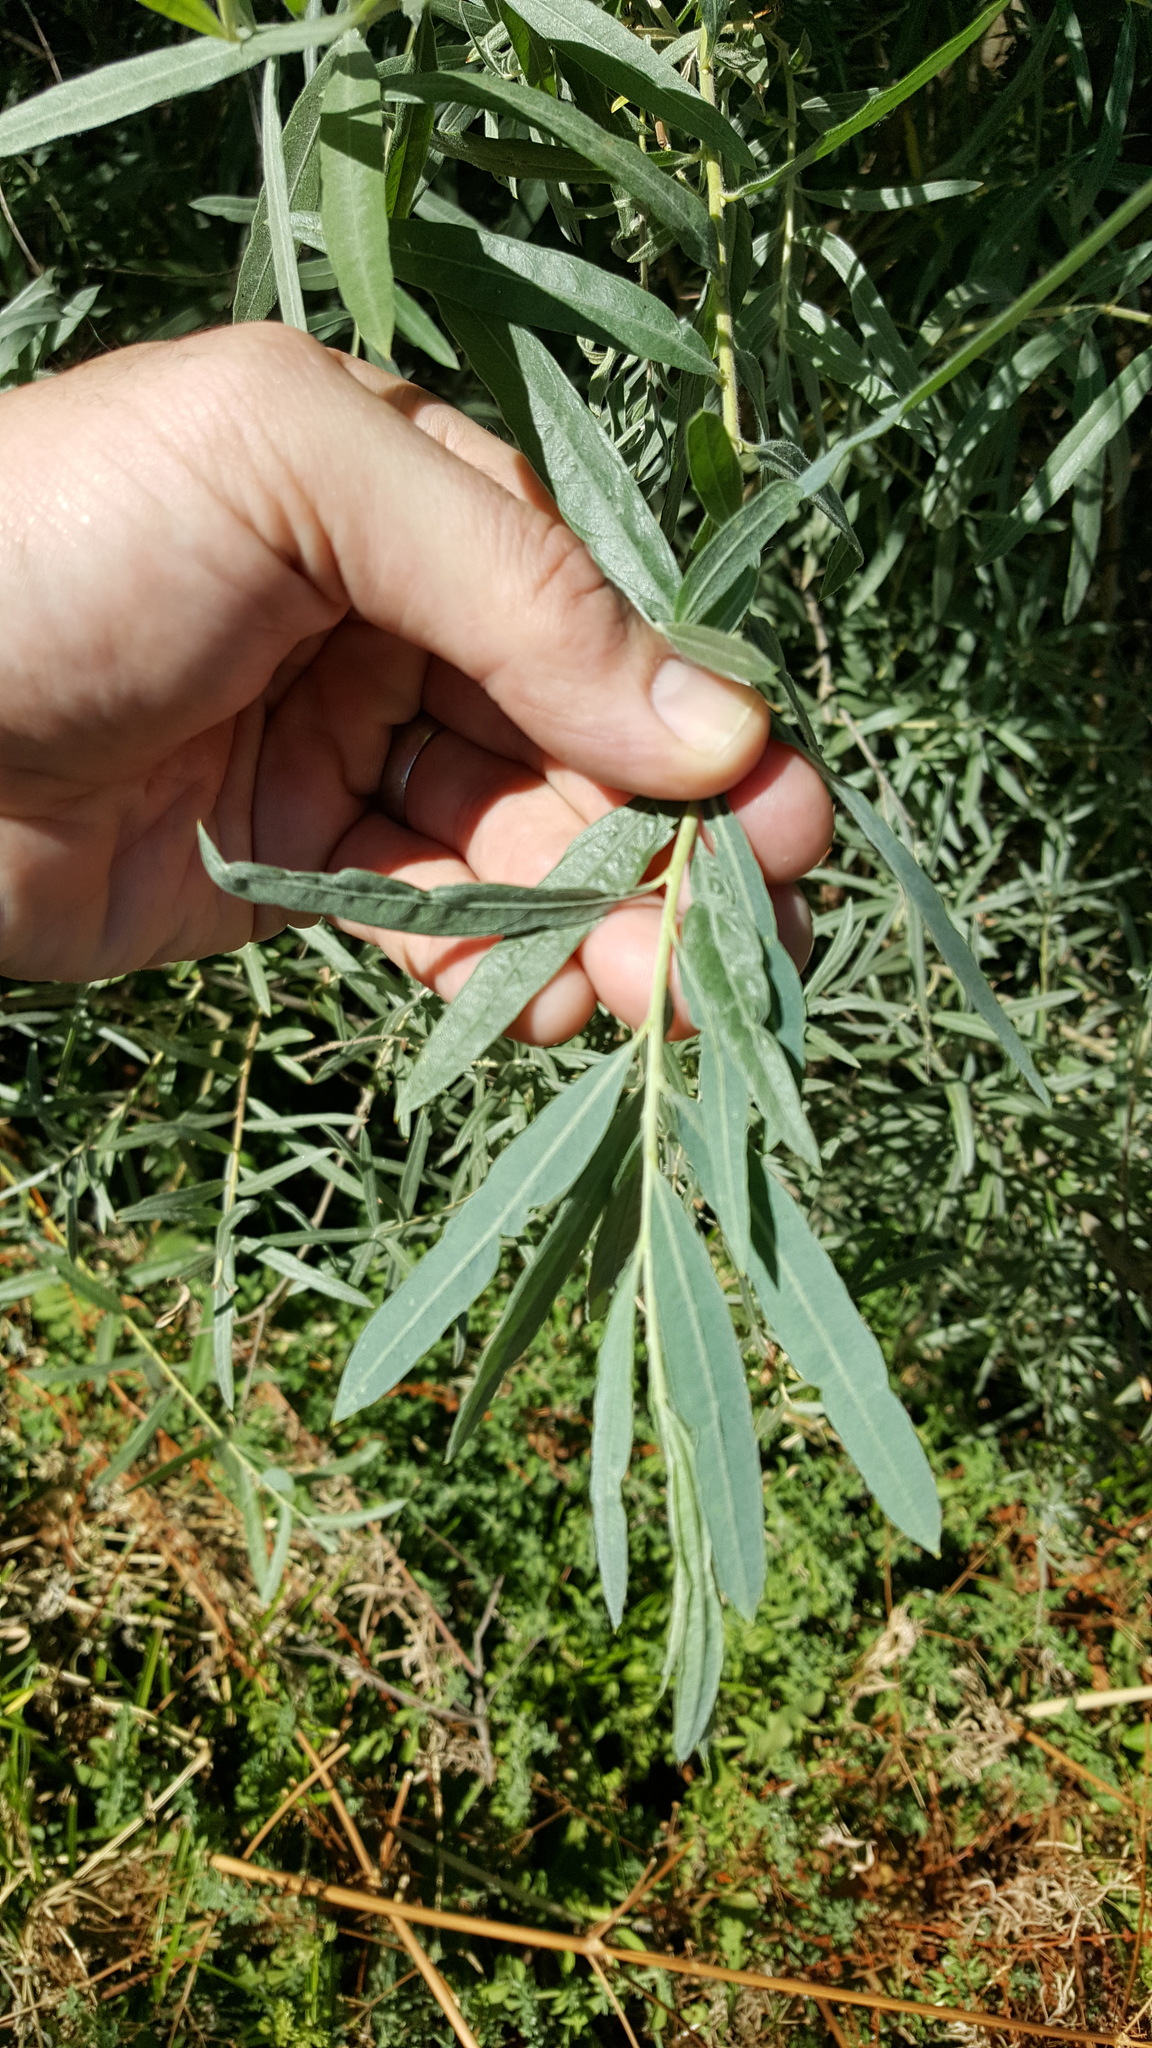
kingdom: Plantae
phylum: Tracheophyta
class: Magnoliopsida
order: Malpighiales
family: Salicaceae
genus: Salix
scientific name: Salix exigua
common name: Coyote willow
